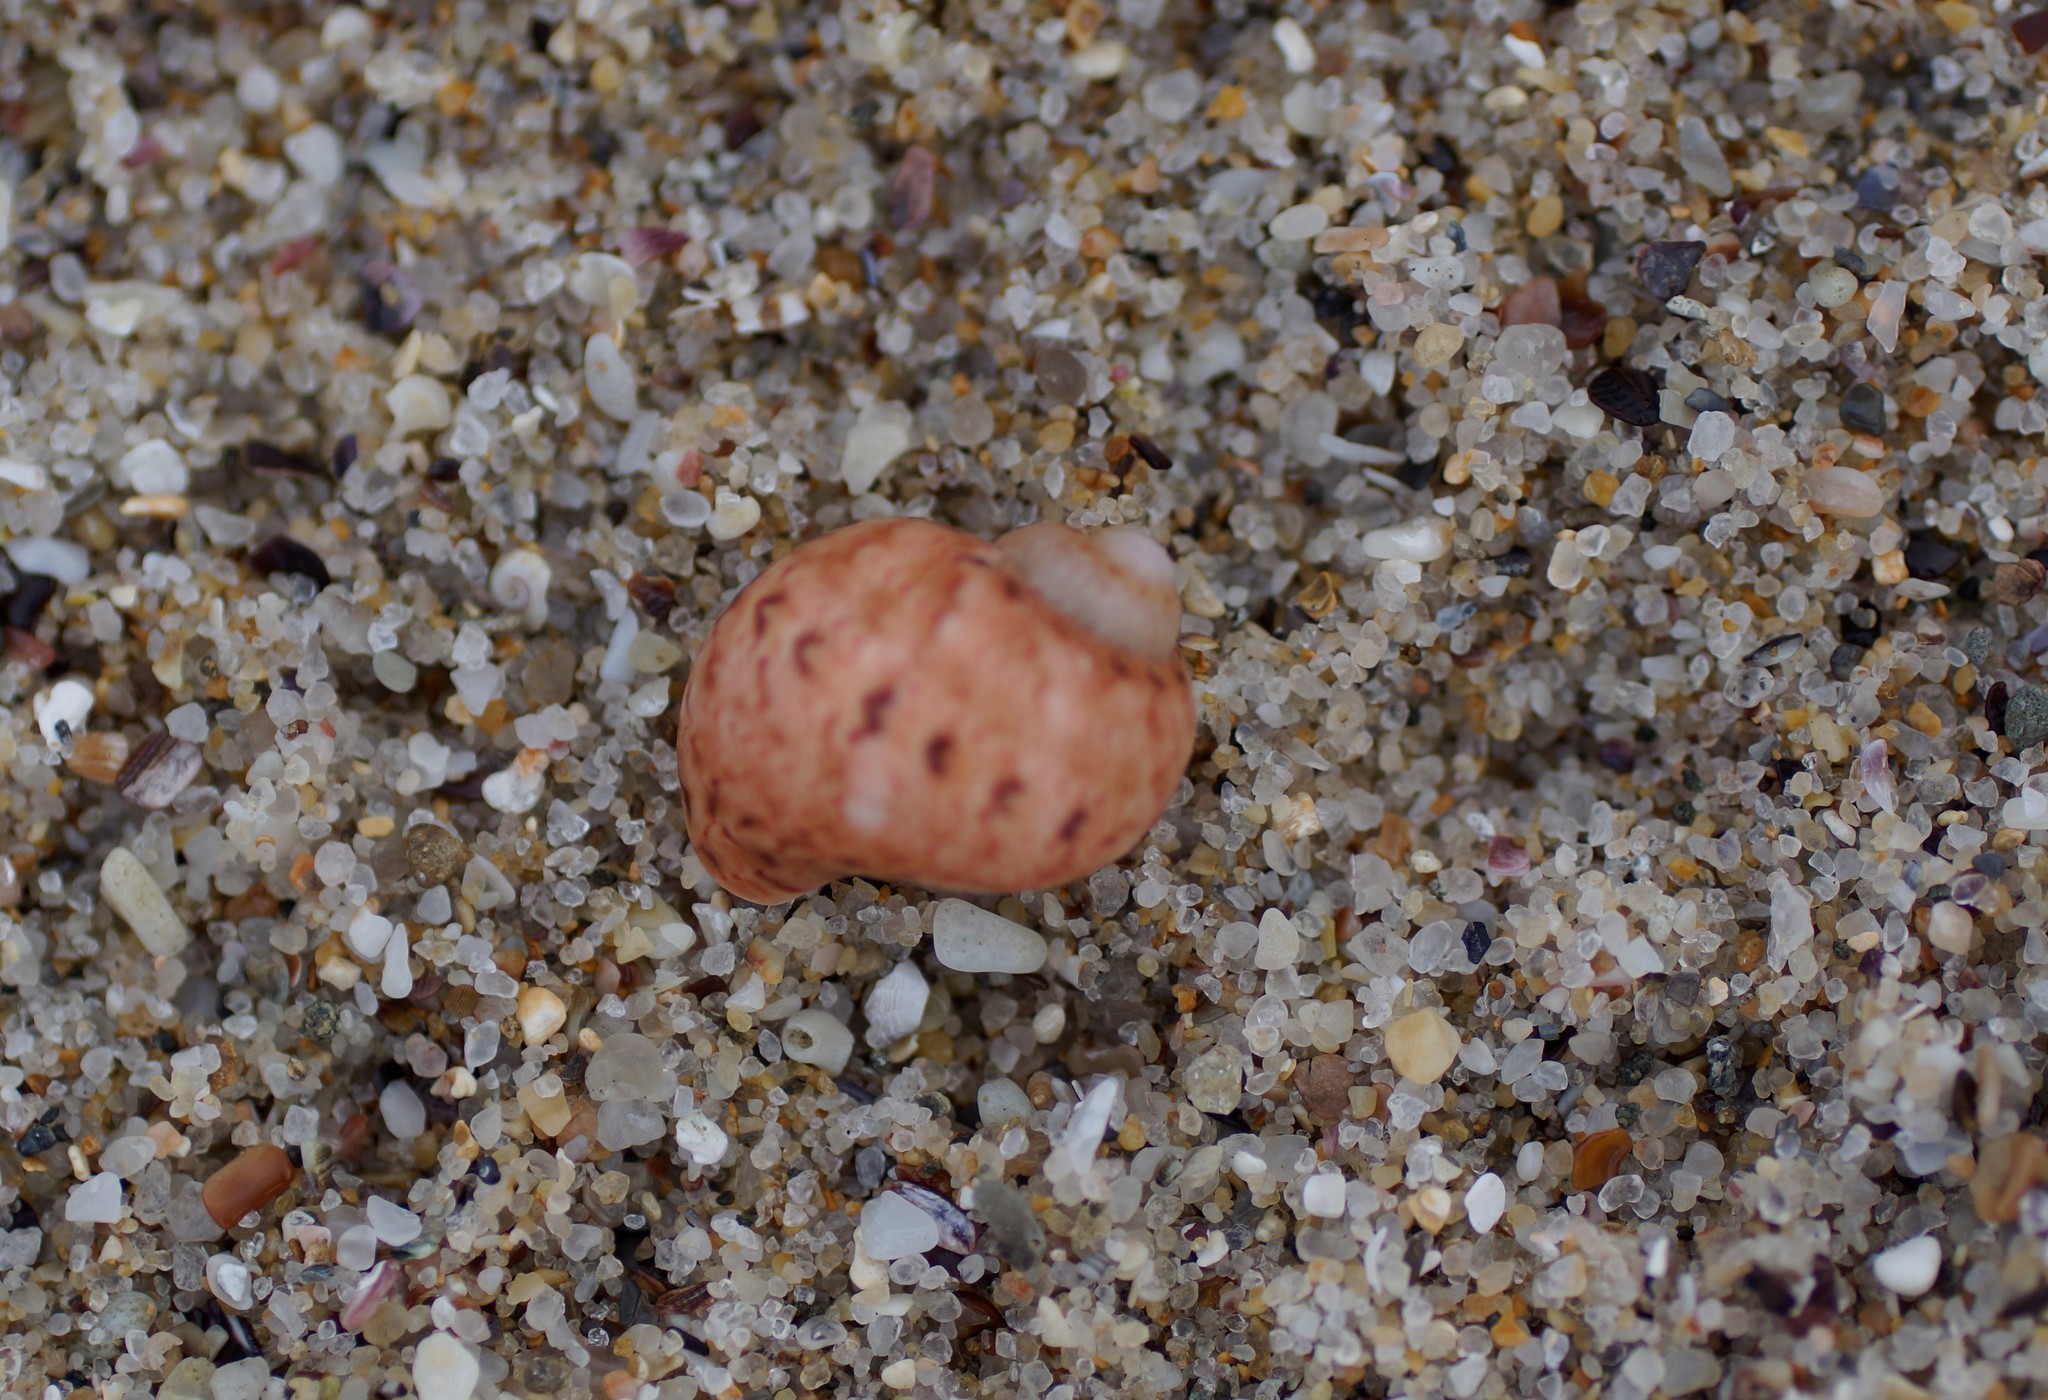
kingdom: Animalia
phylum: Mollusca
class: Gastropoda
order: Trochida
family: Phasianellidae
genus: Phasianella
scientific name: Phasianella ventricosa
